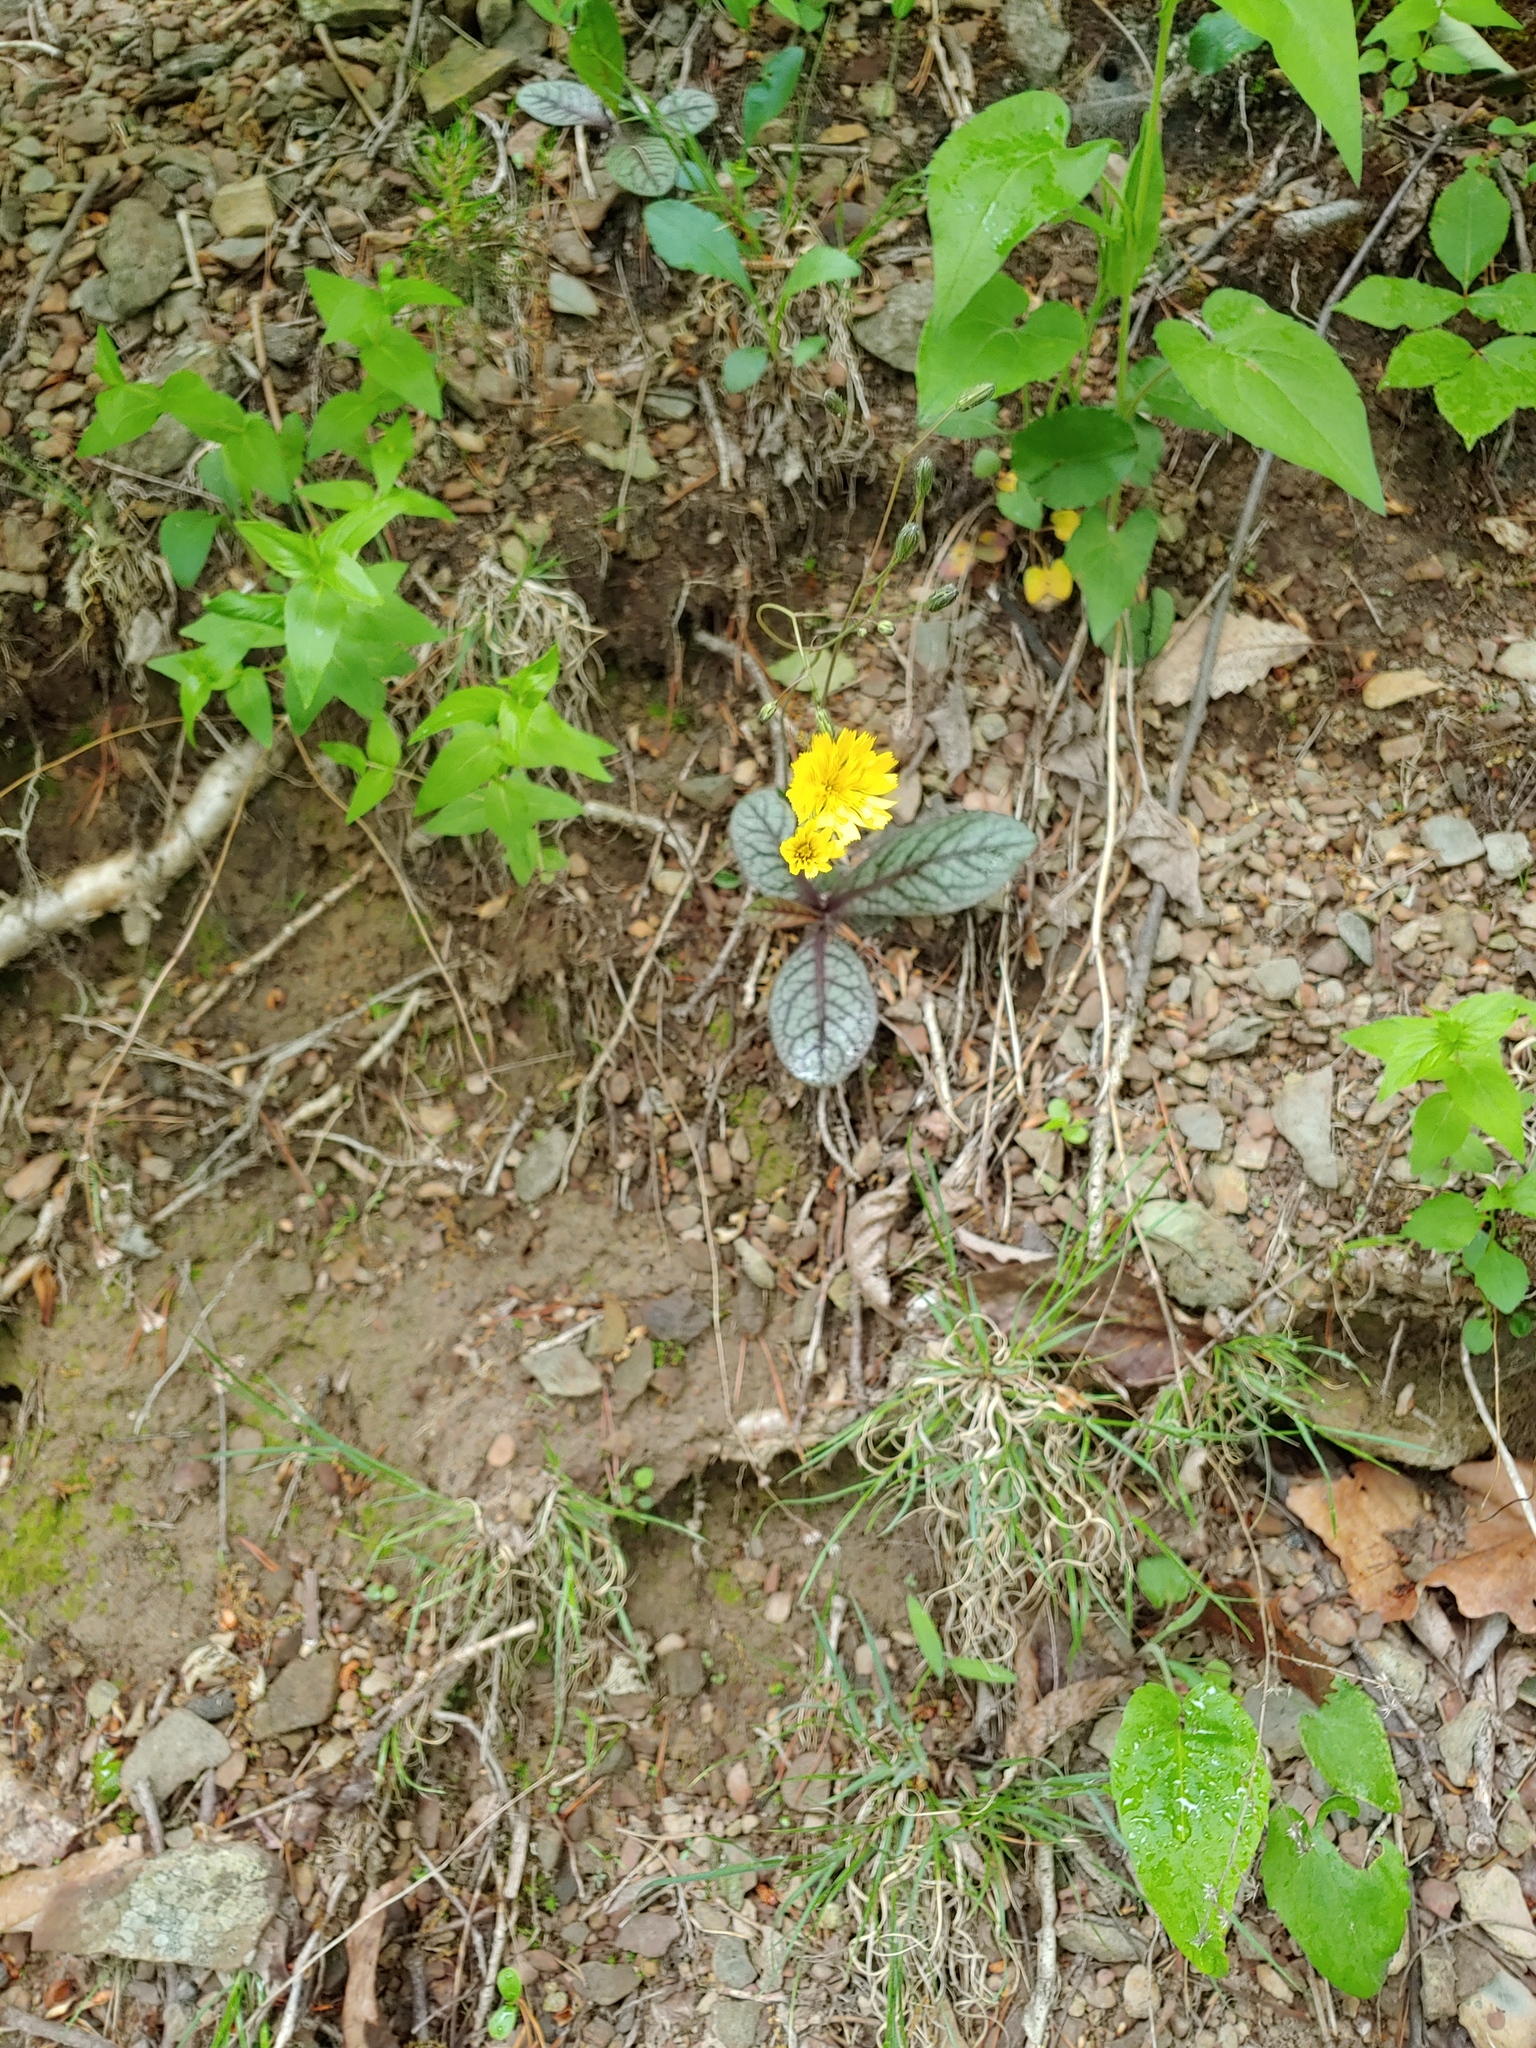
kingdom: Plantae
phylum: Tracheophyta
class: Magnoliopsida
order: Asterales
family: Asteraceae
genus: Hieracium
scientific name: Hieracium venosum
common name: Rattlesnake hawkweed
